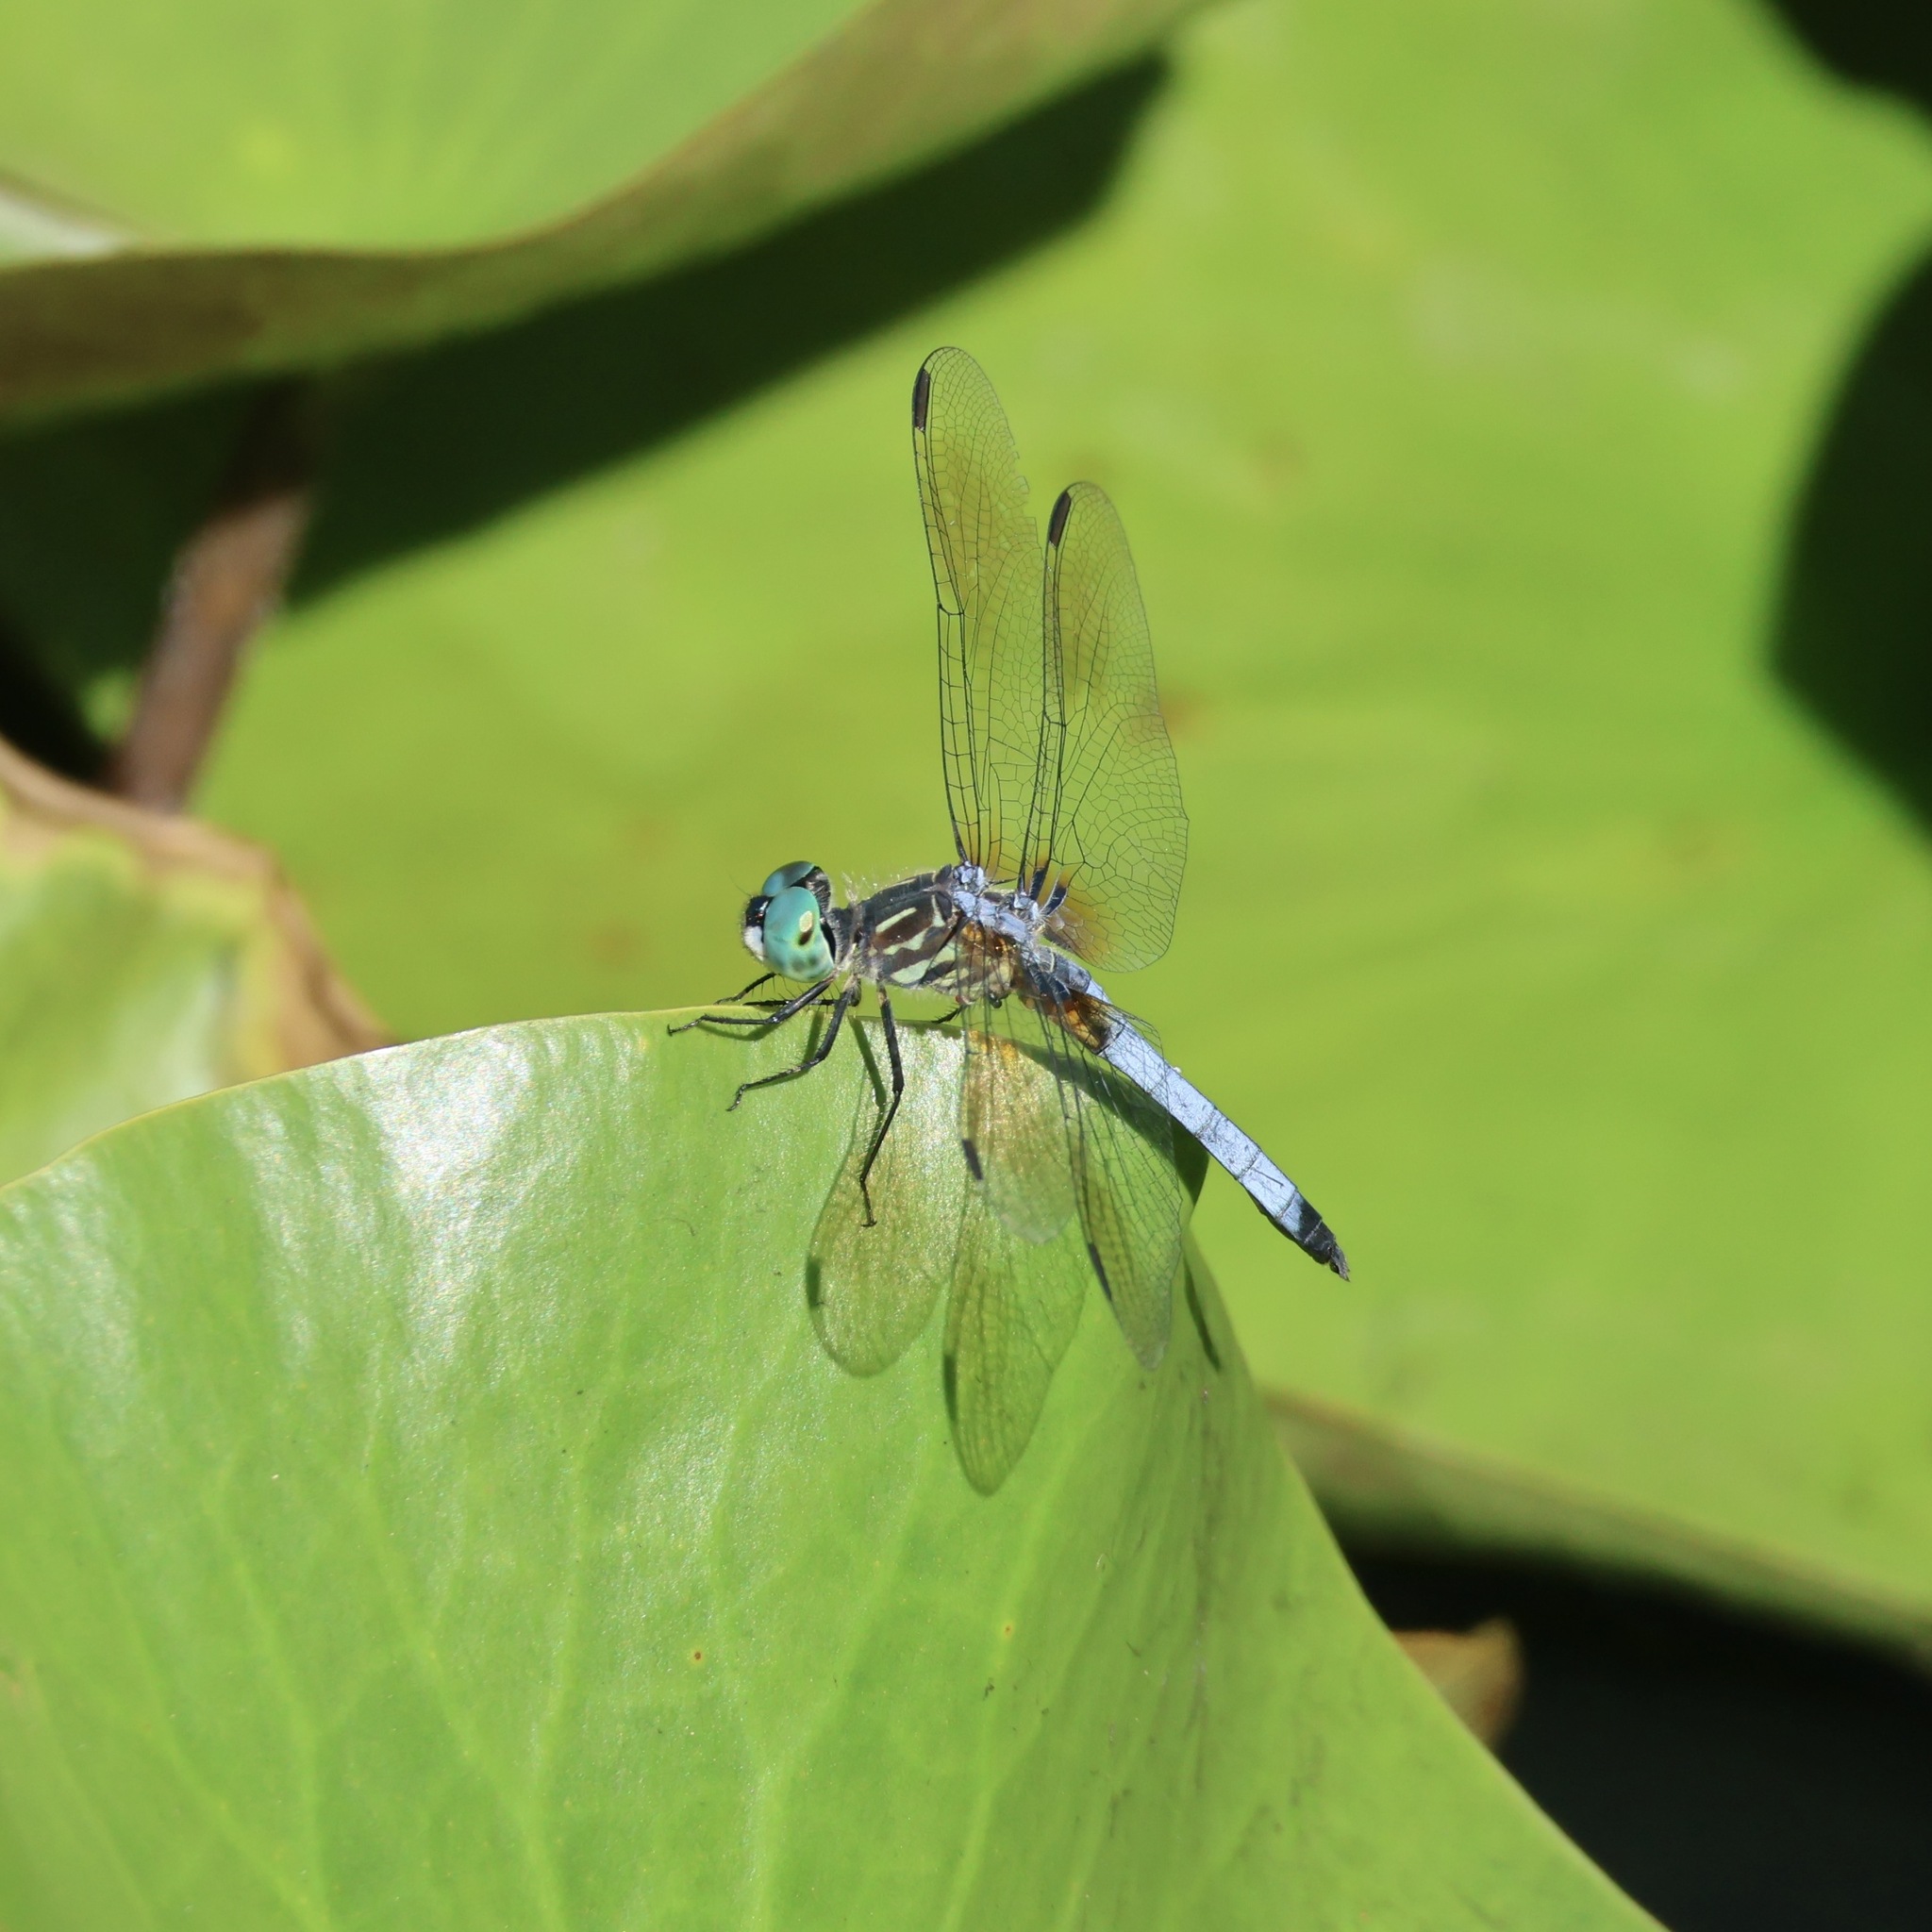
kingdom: Animalia
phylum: Arthropoda
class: Insecta
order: Odonata
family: Libellulidae
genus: Pachydiplax
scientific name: Pachydiplax longipennis
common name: Blue dasher
